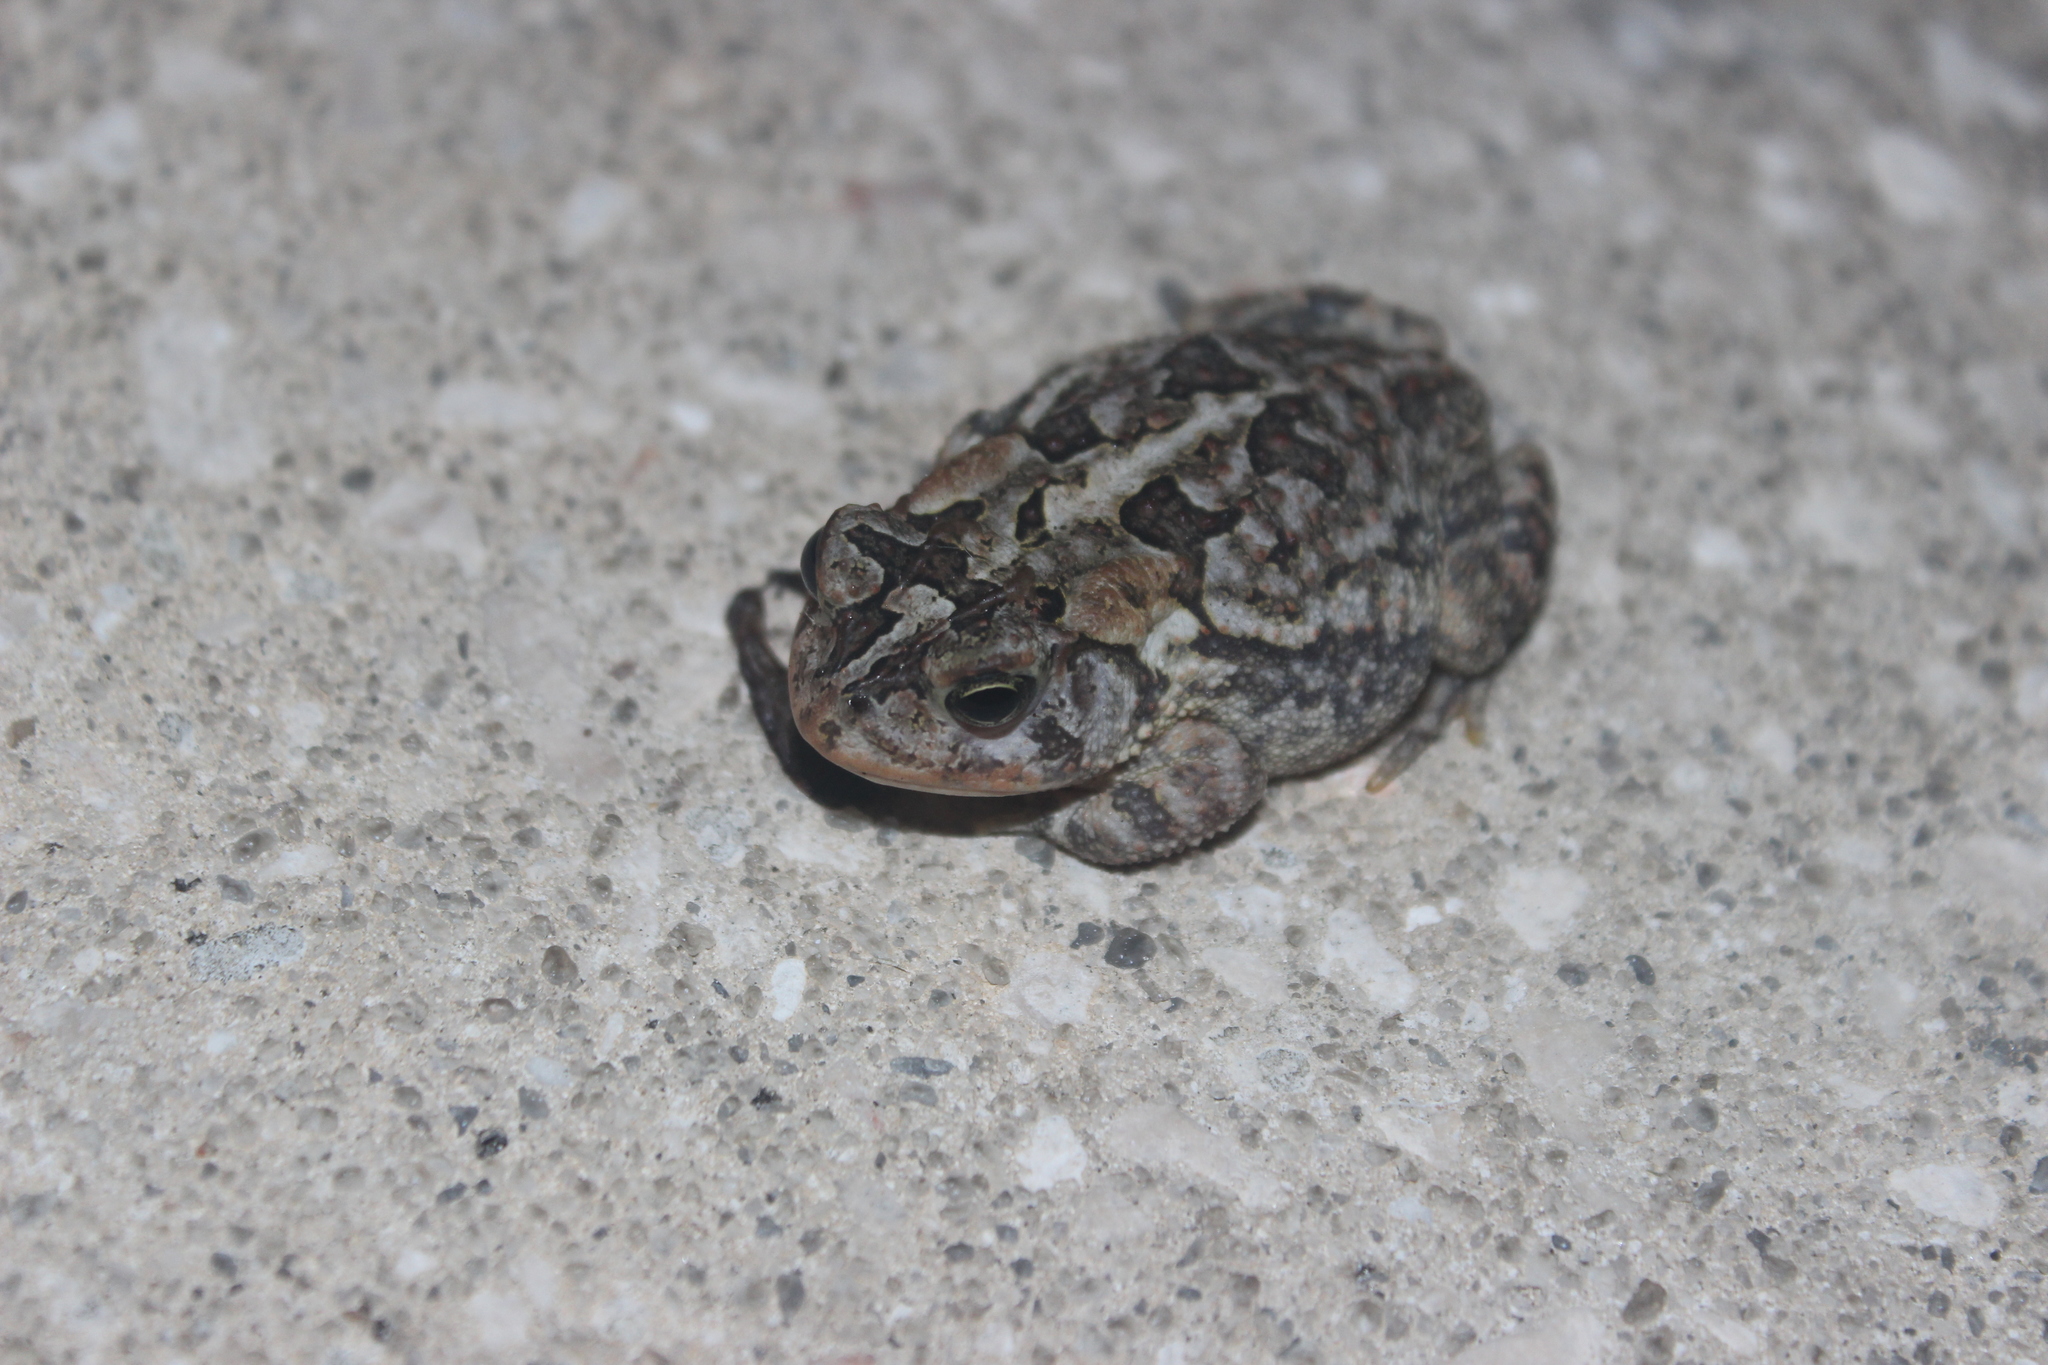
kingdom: Animalia
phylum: Chordata
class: Amphibia
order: Anura
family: Bufonidae
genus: Anaxyrus
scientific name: Anaxyrus terrestris
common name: Southern toad
